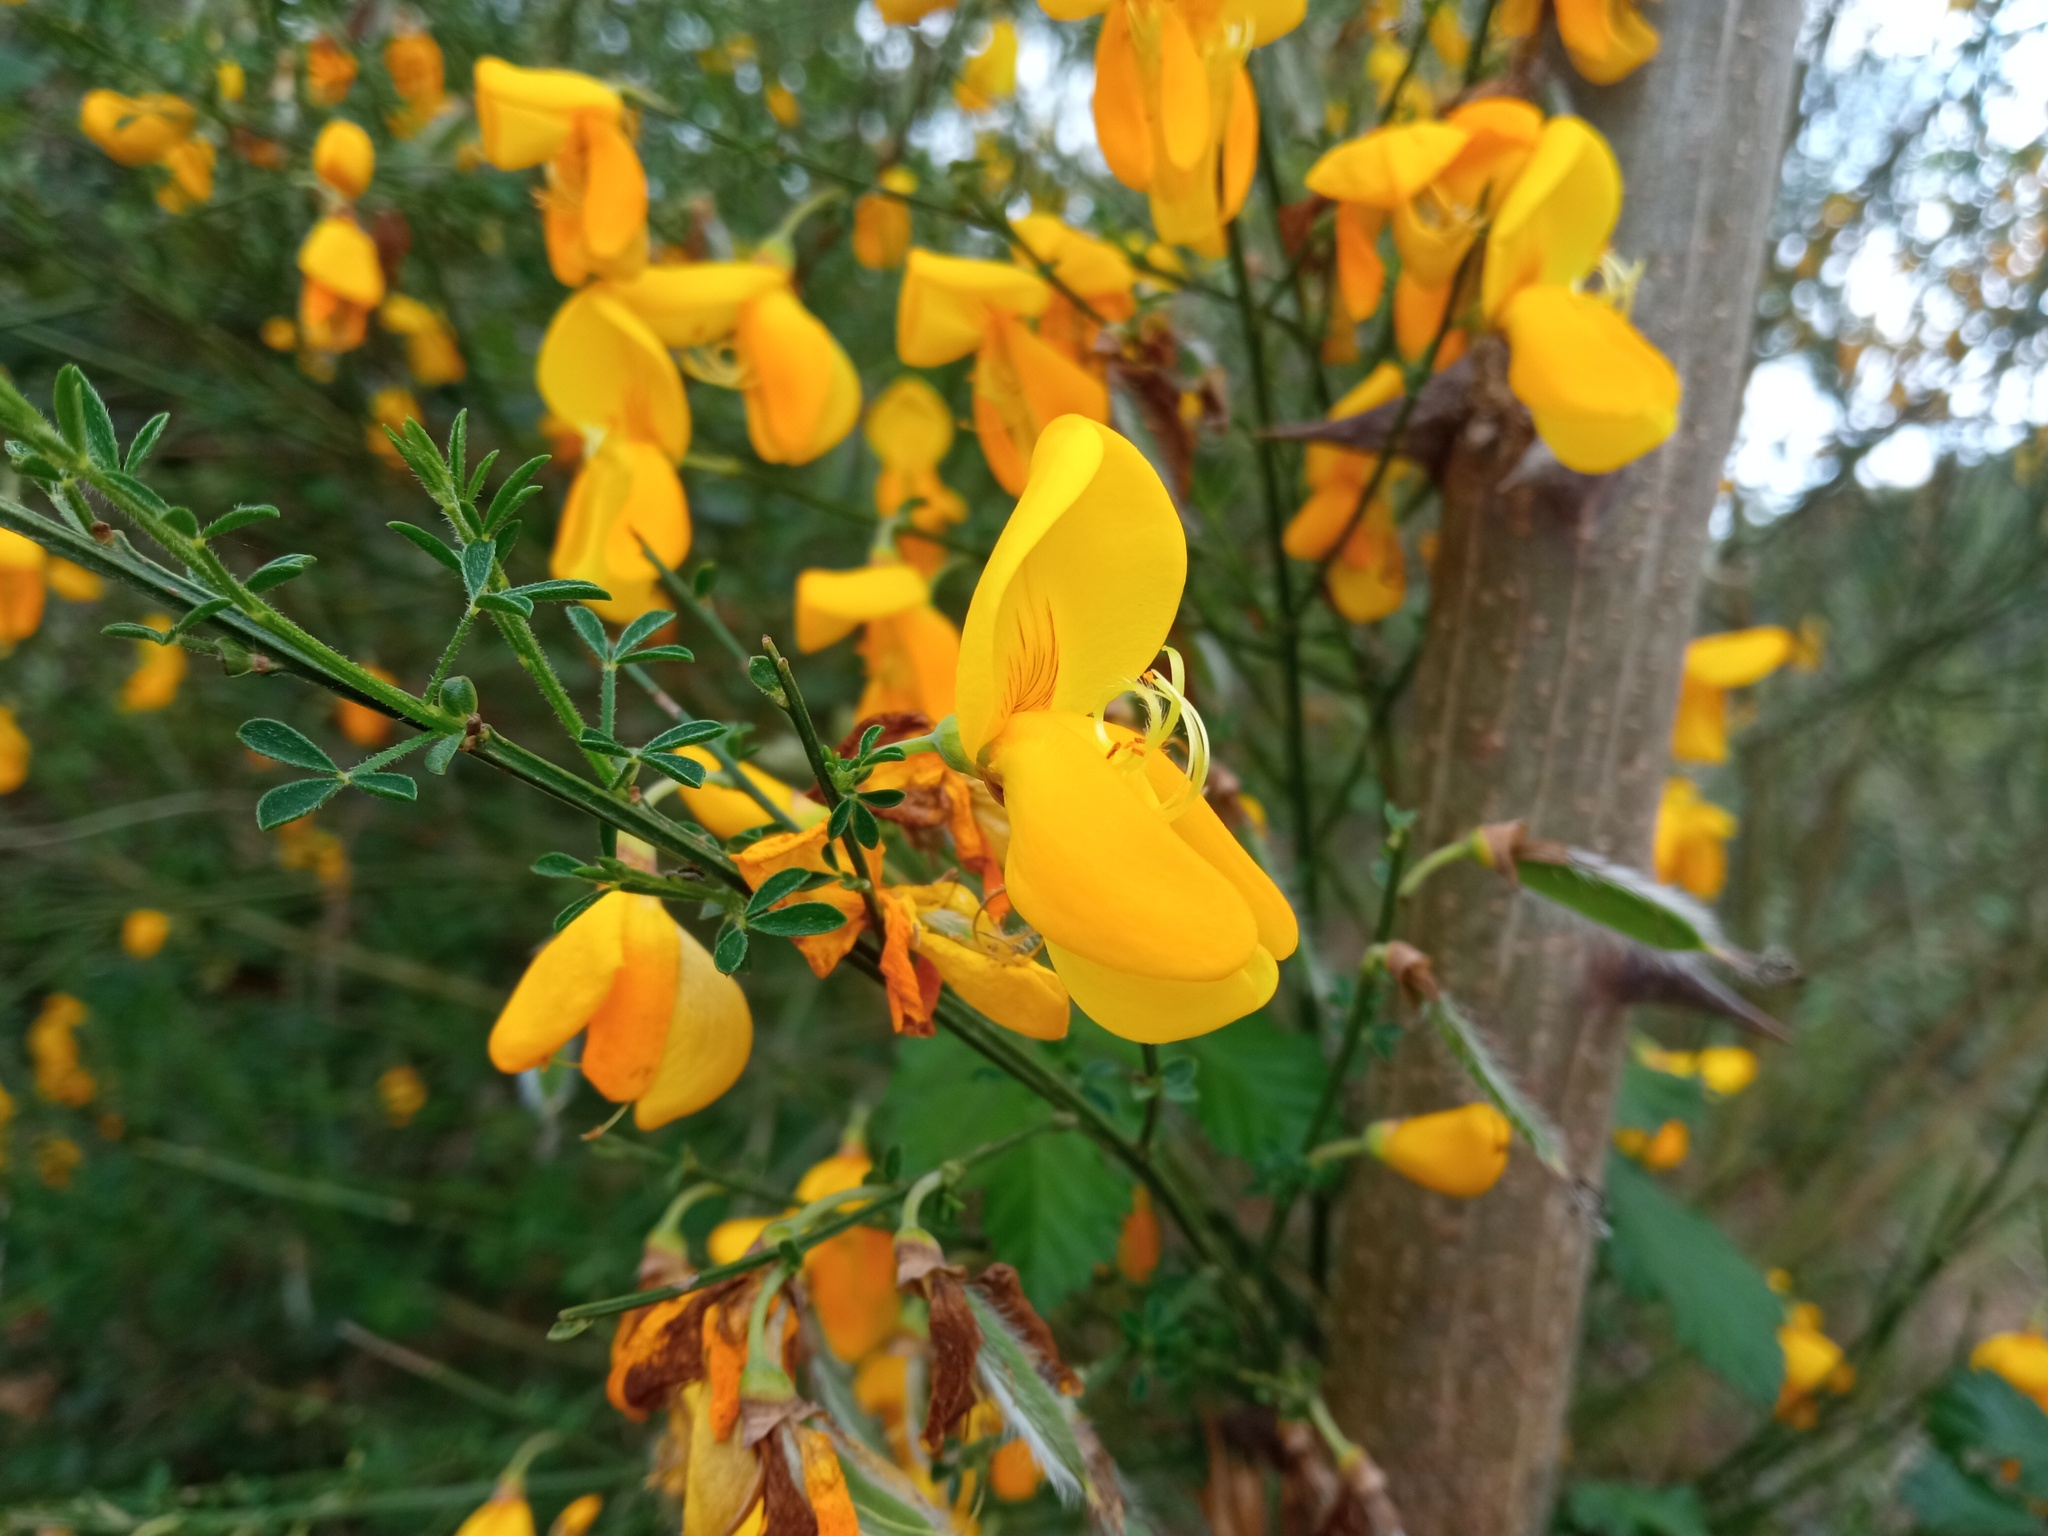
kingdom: Plantae
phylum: Tracheophyta
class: Magnoliopsida
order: Fabales
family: Fabaceae
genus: Cytisus
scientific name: Cytisus scoparius
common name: Scotch broom
